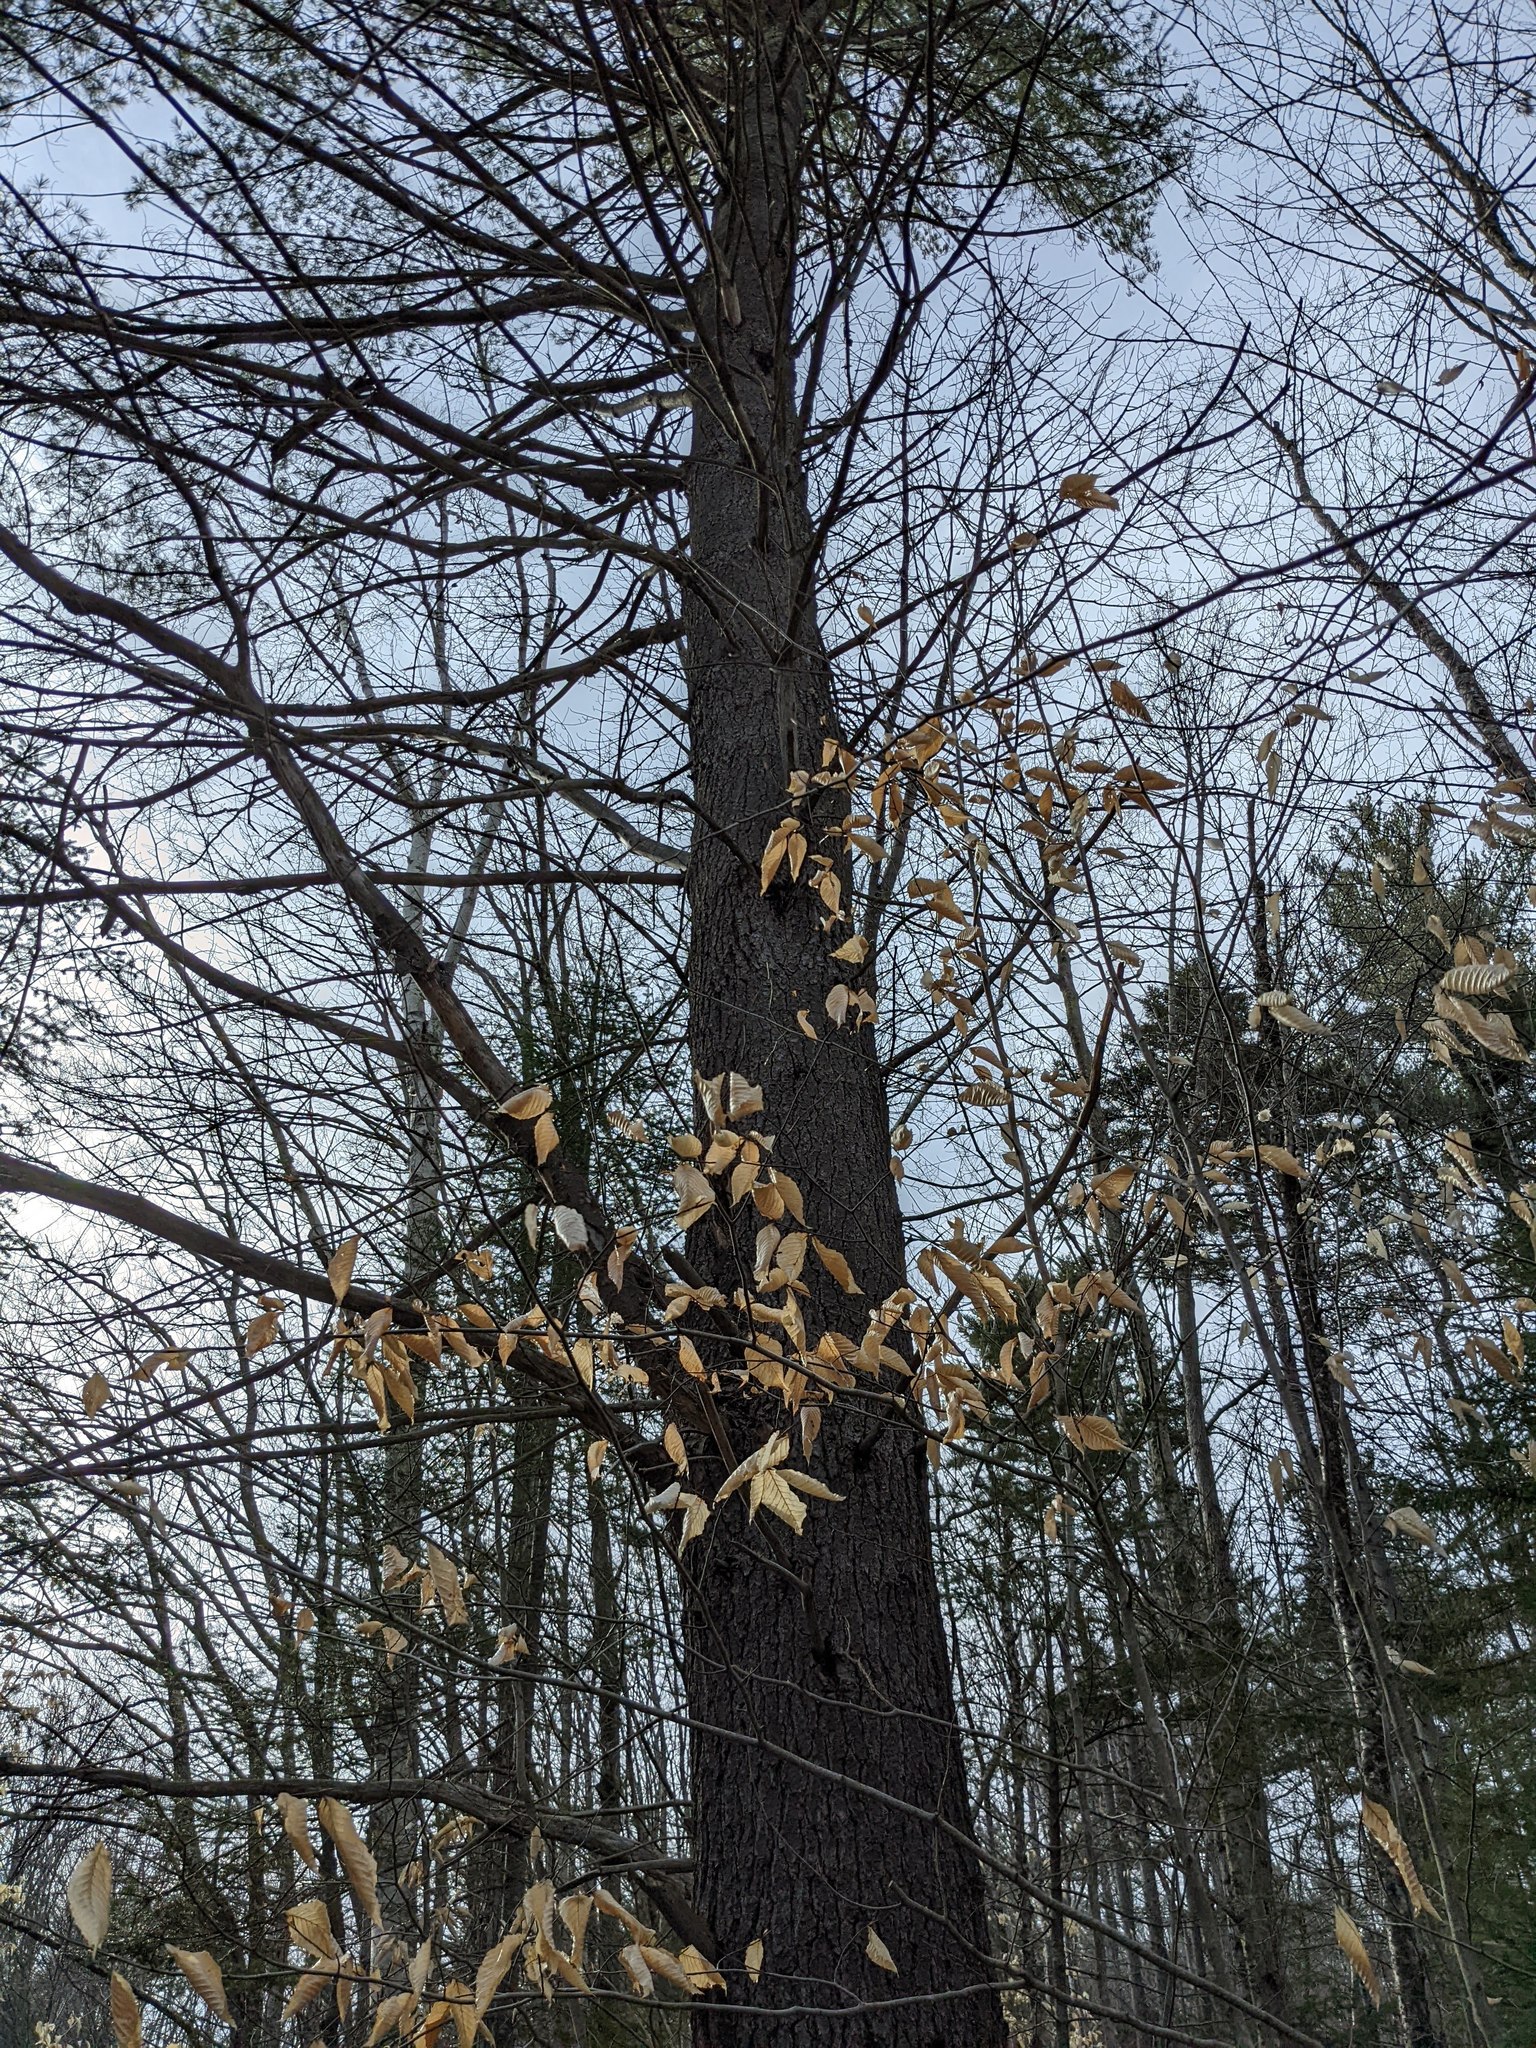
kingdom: Plantae
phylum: Tracheophyta
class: Pinopsida
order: Pinales
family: Pinaceae
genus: Pinus
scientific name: Pinus strobus
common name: Weymouth pine
